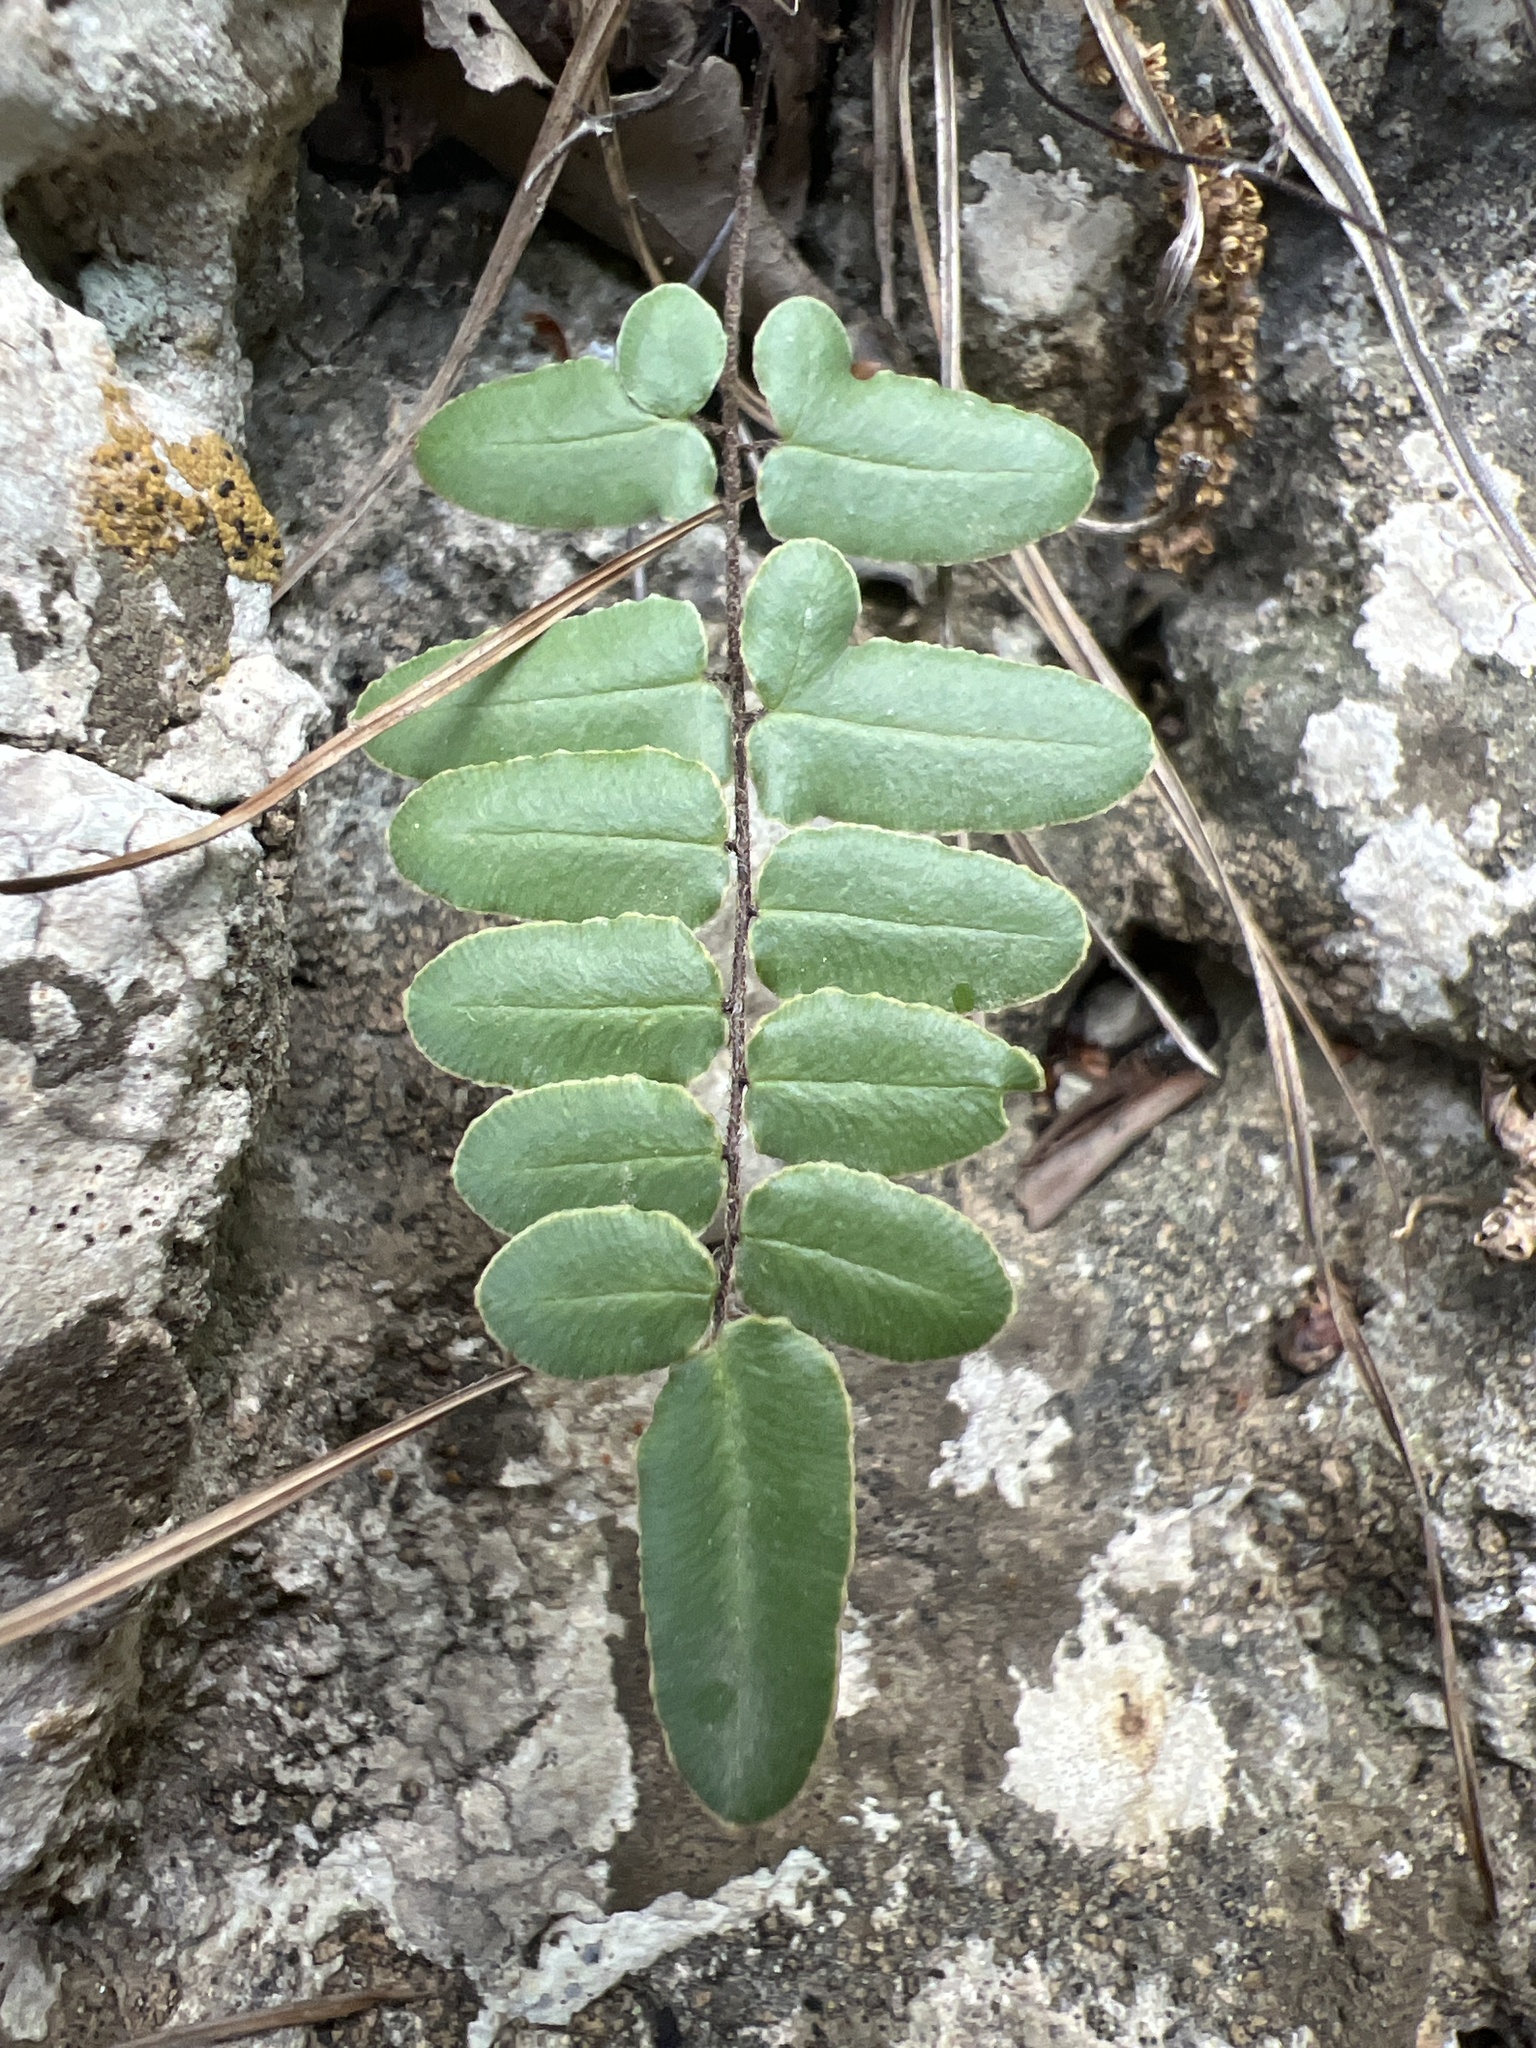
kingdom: Plantae
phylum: Tracheophyta
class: Polypodiopsida
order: Polypodiales
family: Pteridaceae
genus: Pellaea
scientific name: Pellaea atropurpurea
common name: Hairy cliffbrake
